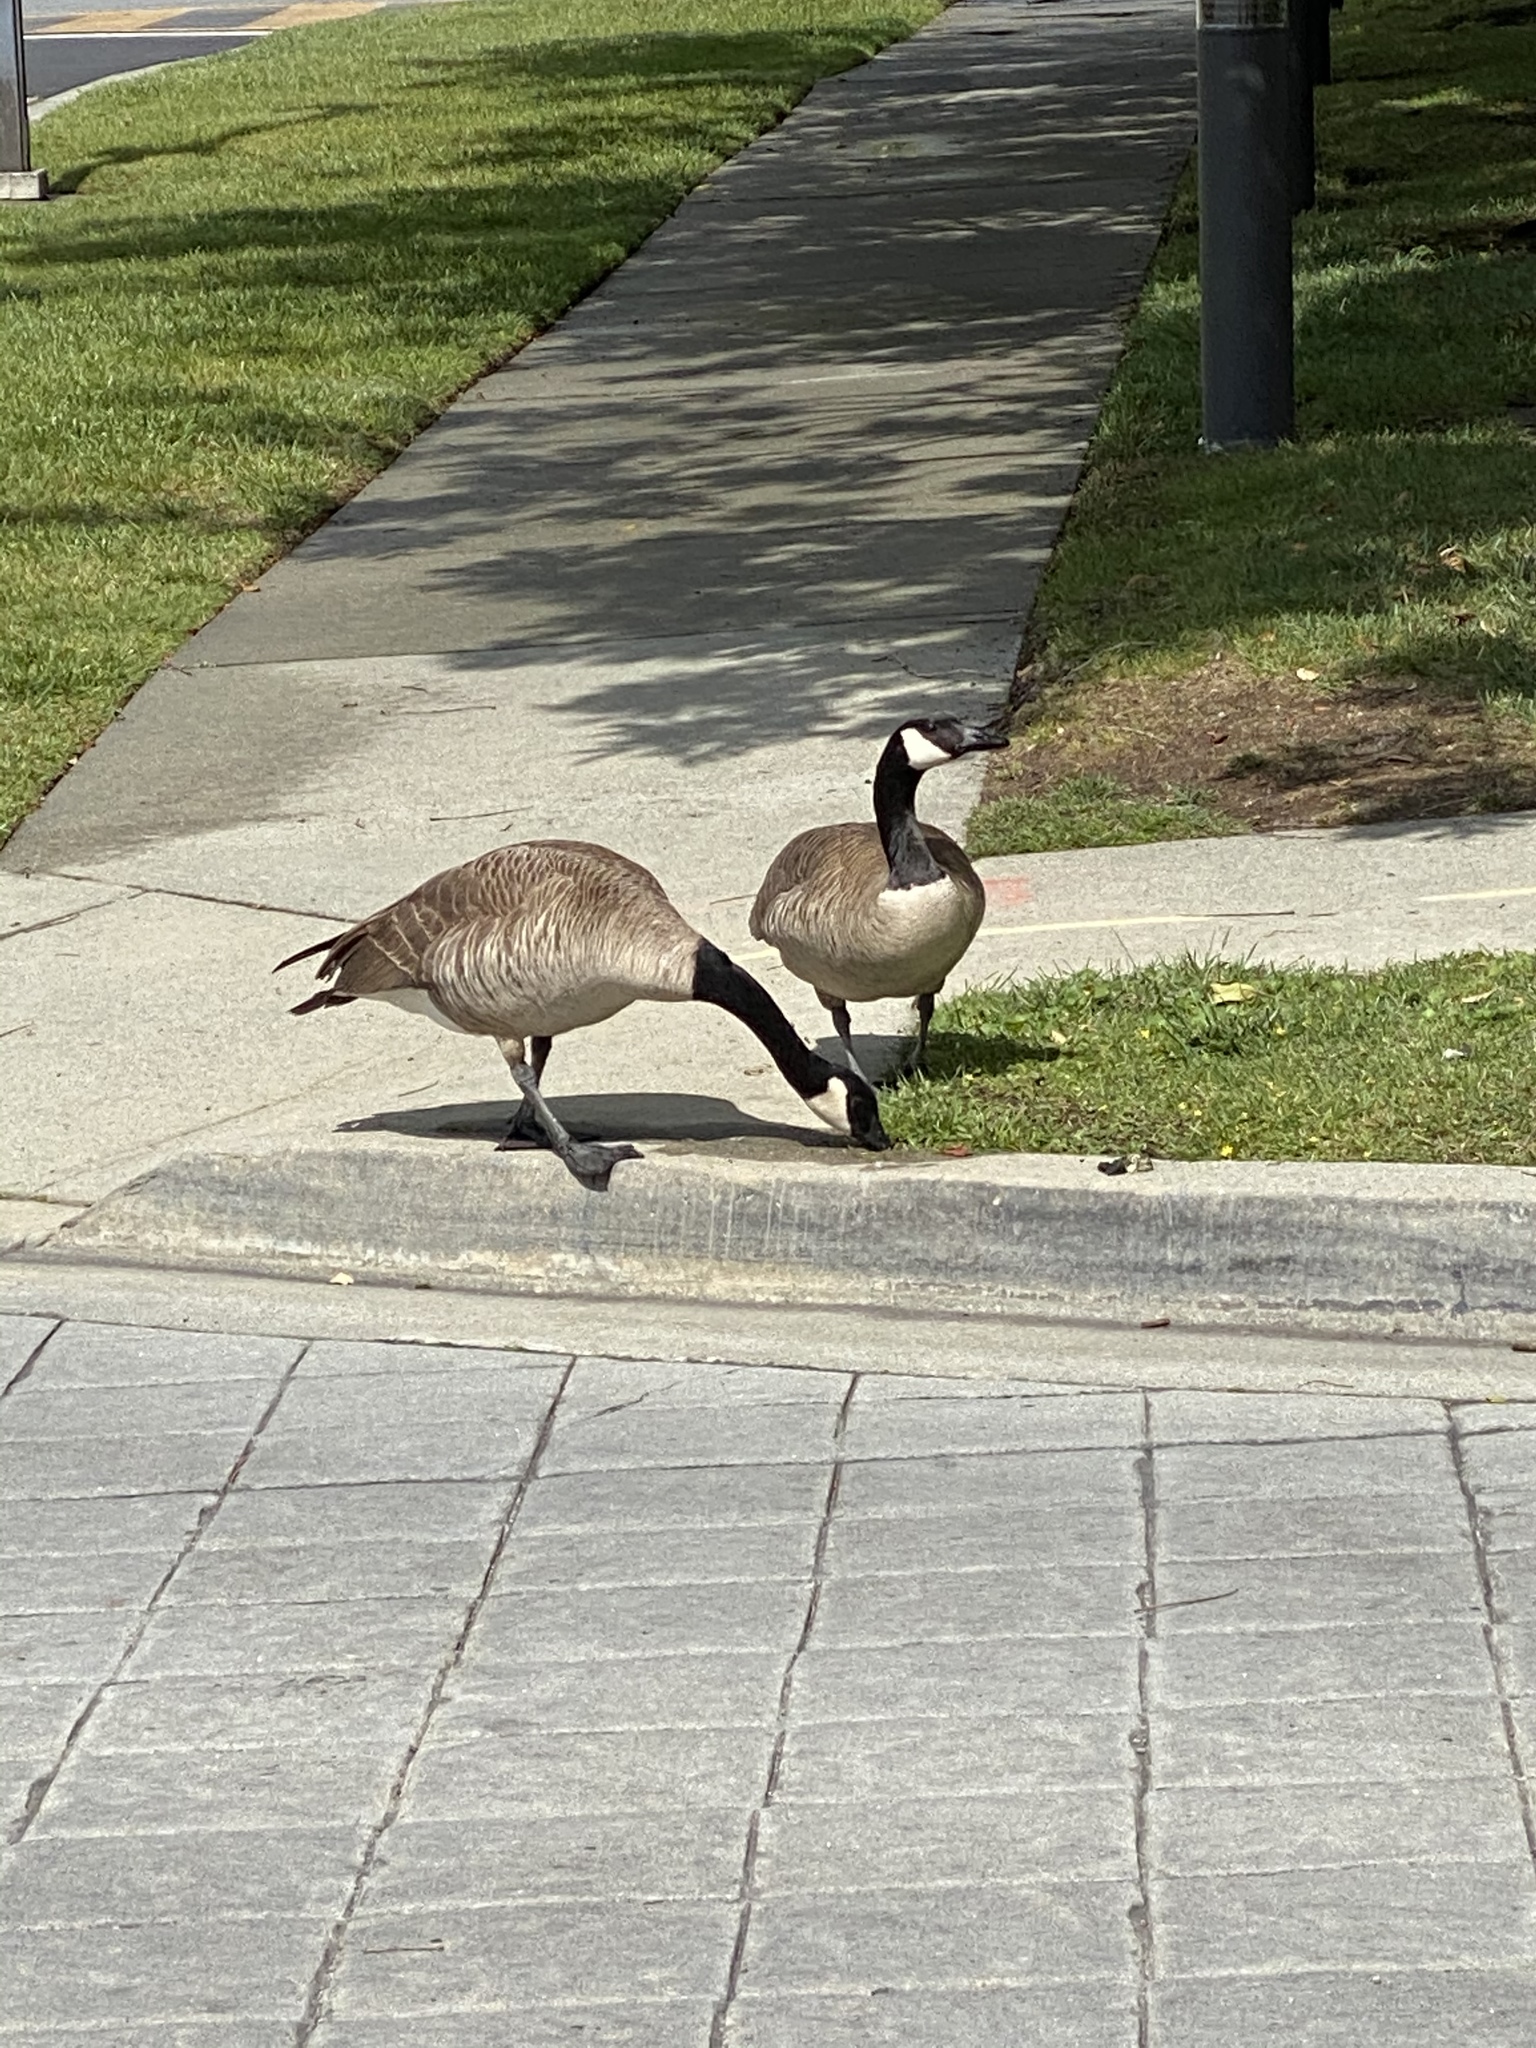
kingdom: Animalia
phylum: Chordata
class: Aves
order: Anseriformes
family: Anatidae
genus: Branta
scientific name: Branta canadensis
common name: Canada goose
